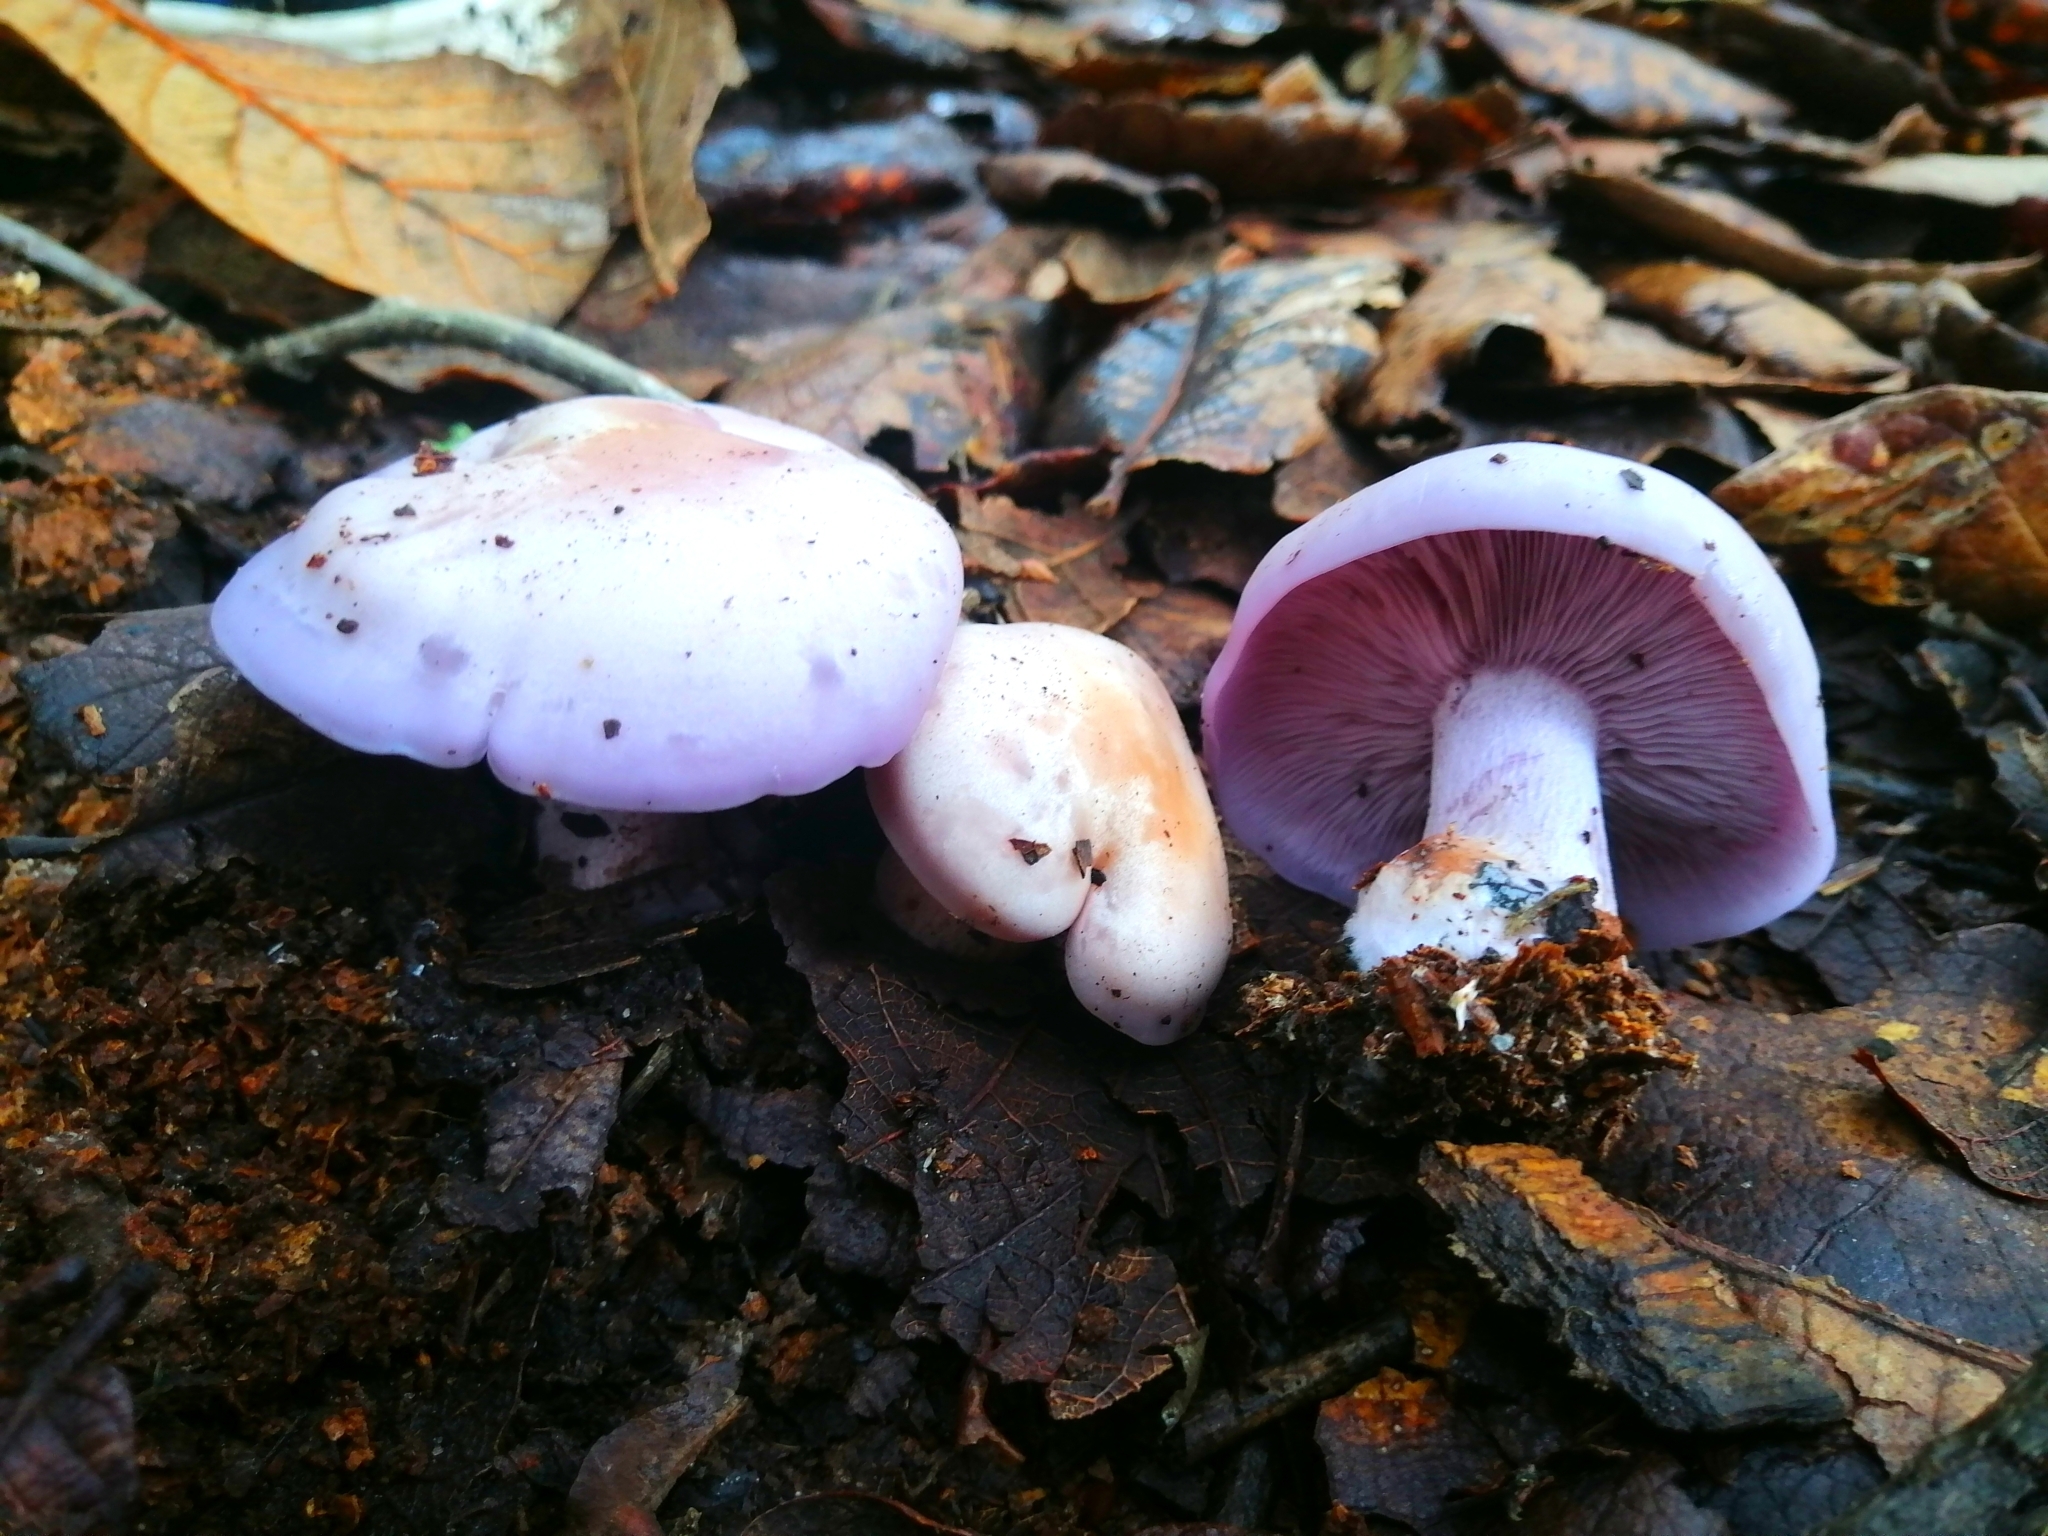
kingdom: Fungi
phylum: Basidiomycota
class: Agaricomycetes
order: Agaricales
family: Tricholomataceae
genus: Collybia
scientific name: Collybia
